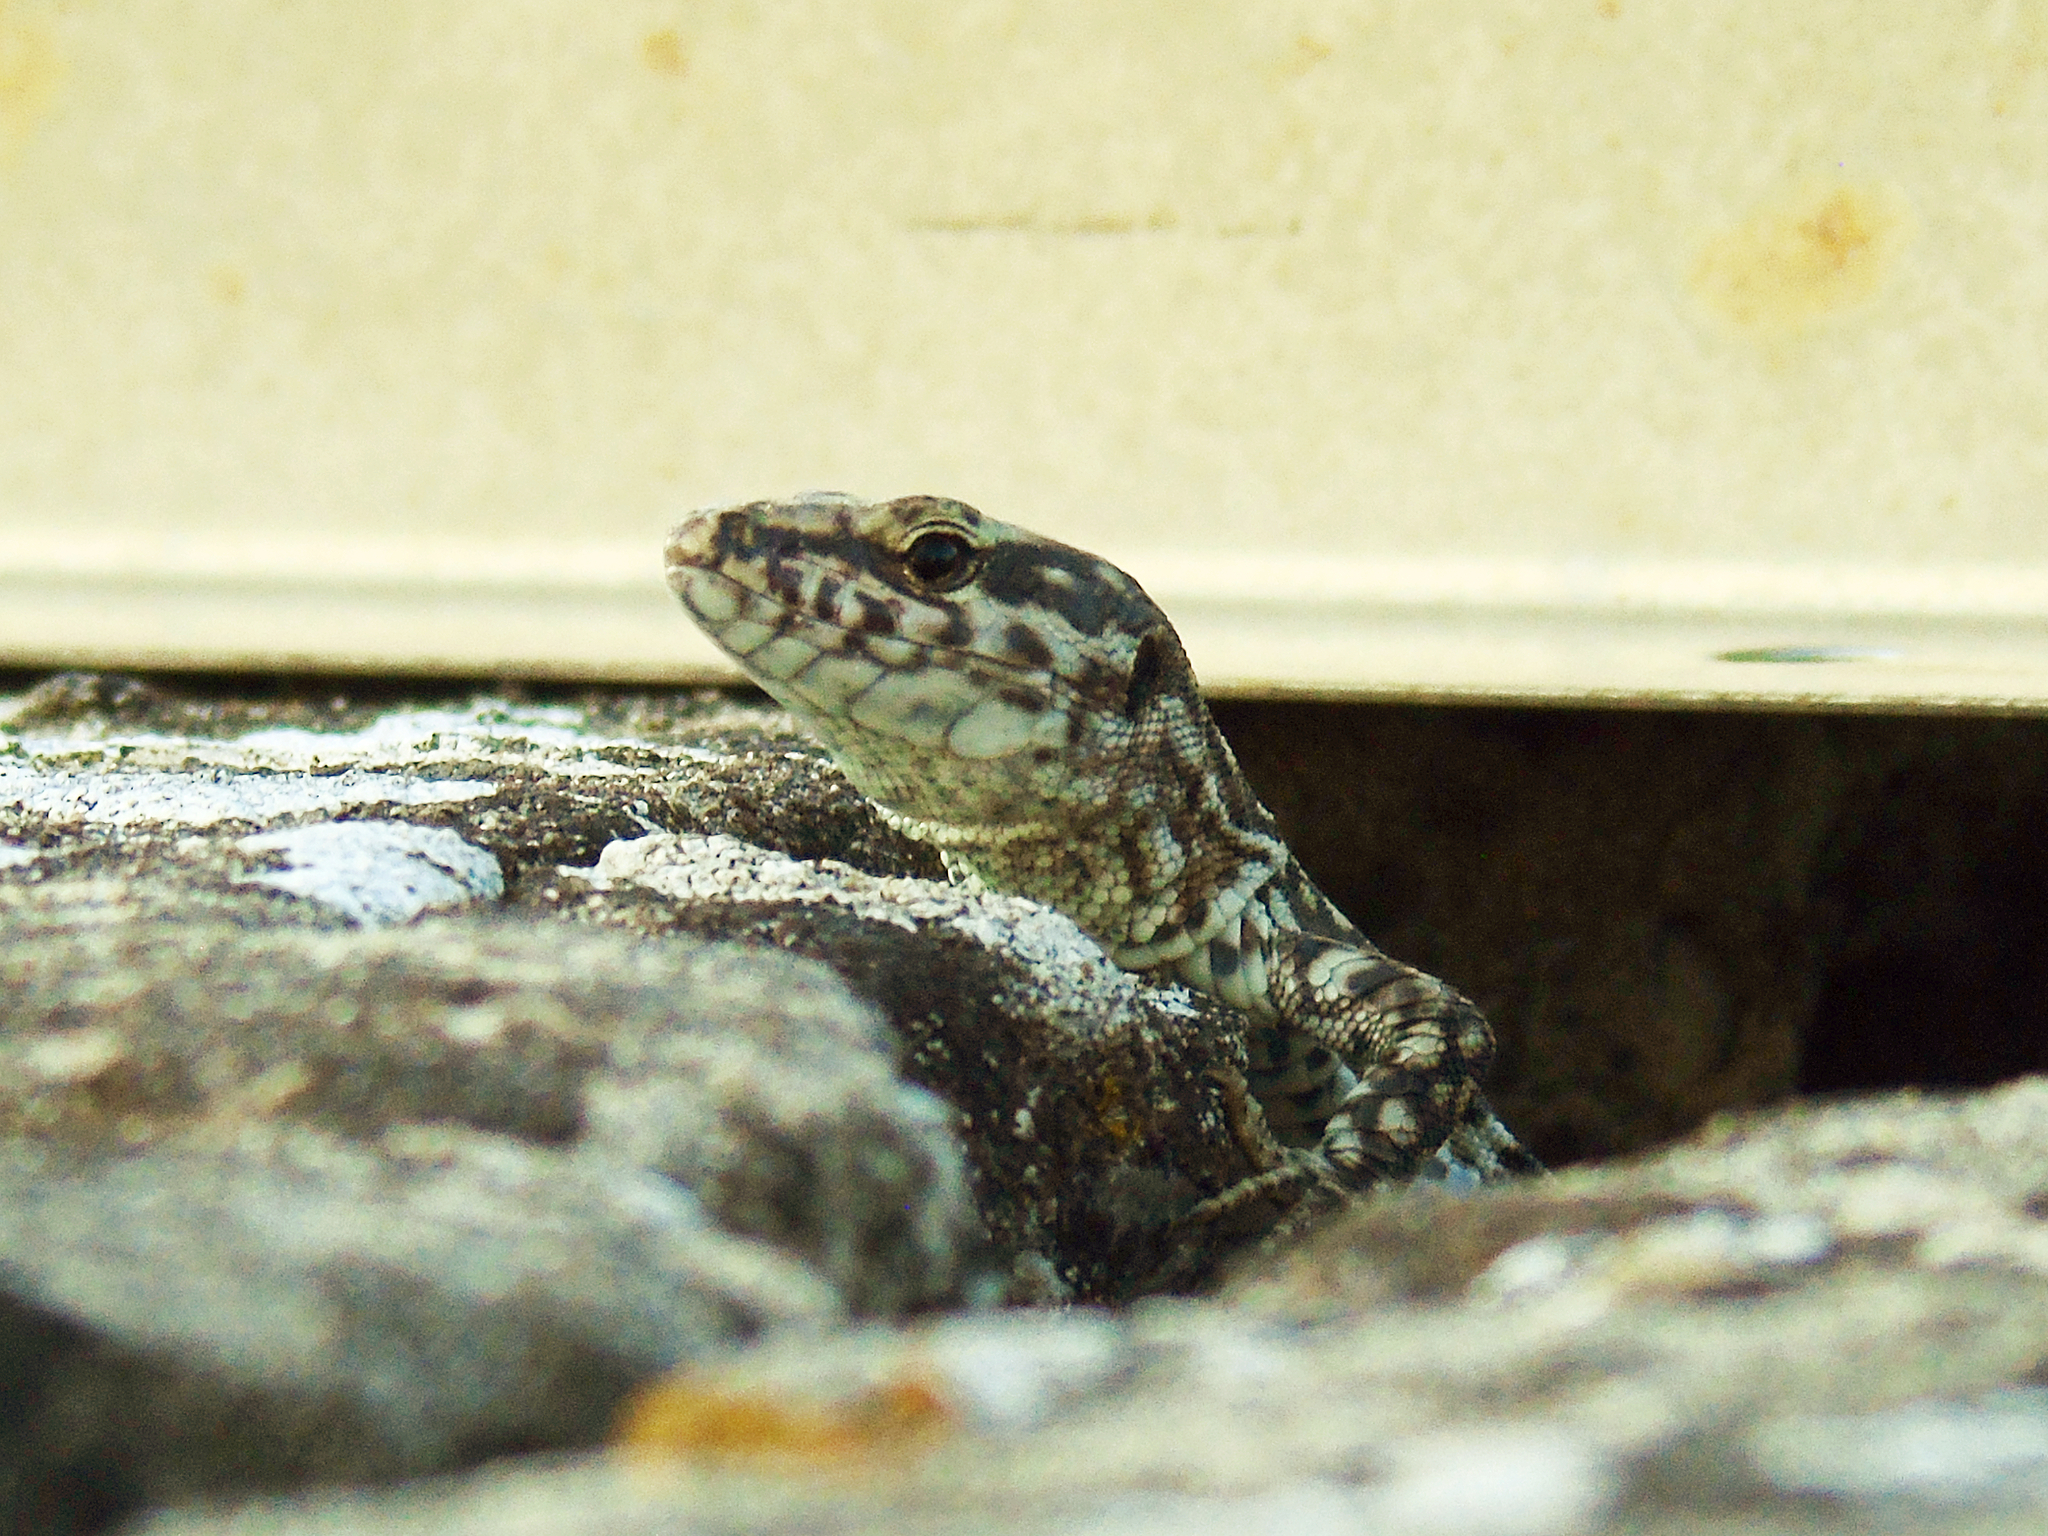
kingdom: Animalia
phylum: Chordata
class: Squamata
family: Lacertidae
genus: Podarcis
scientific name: Podarcis muralis
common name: Common wall lizard
